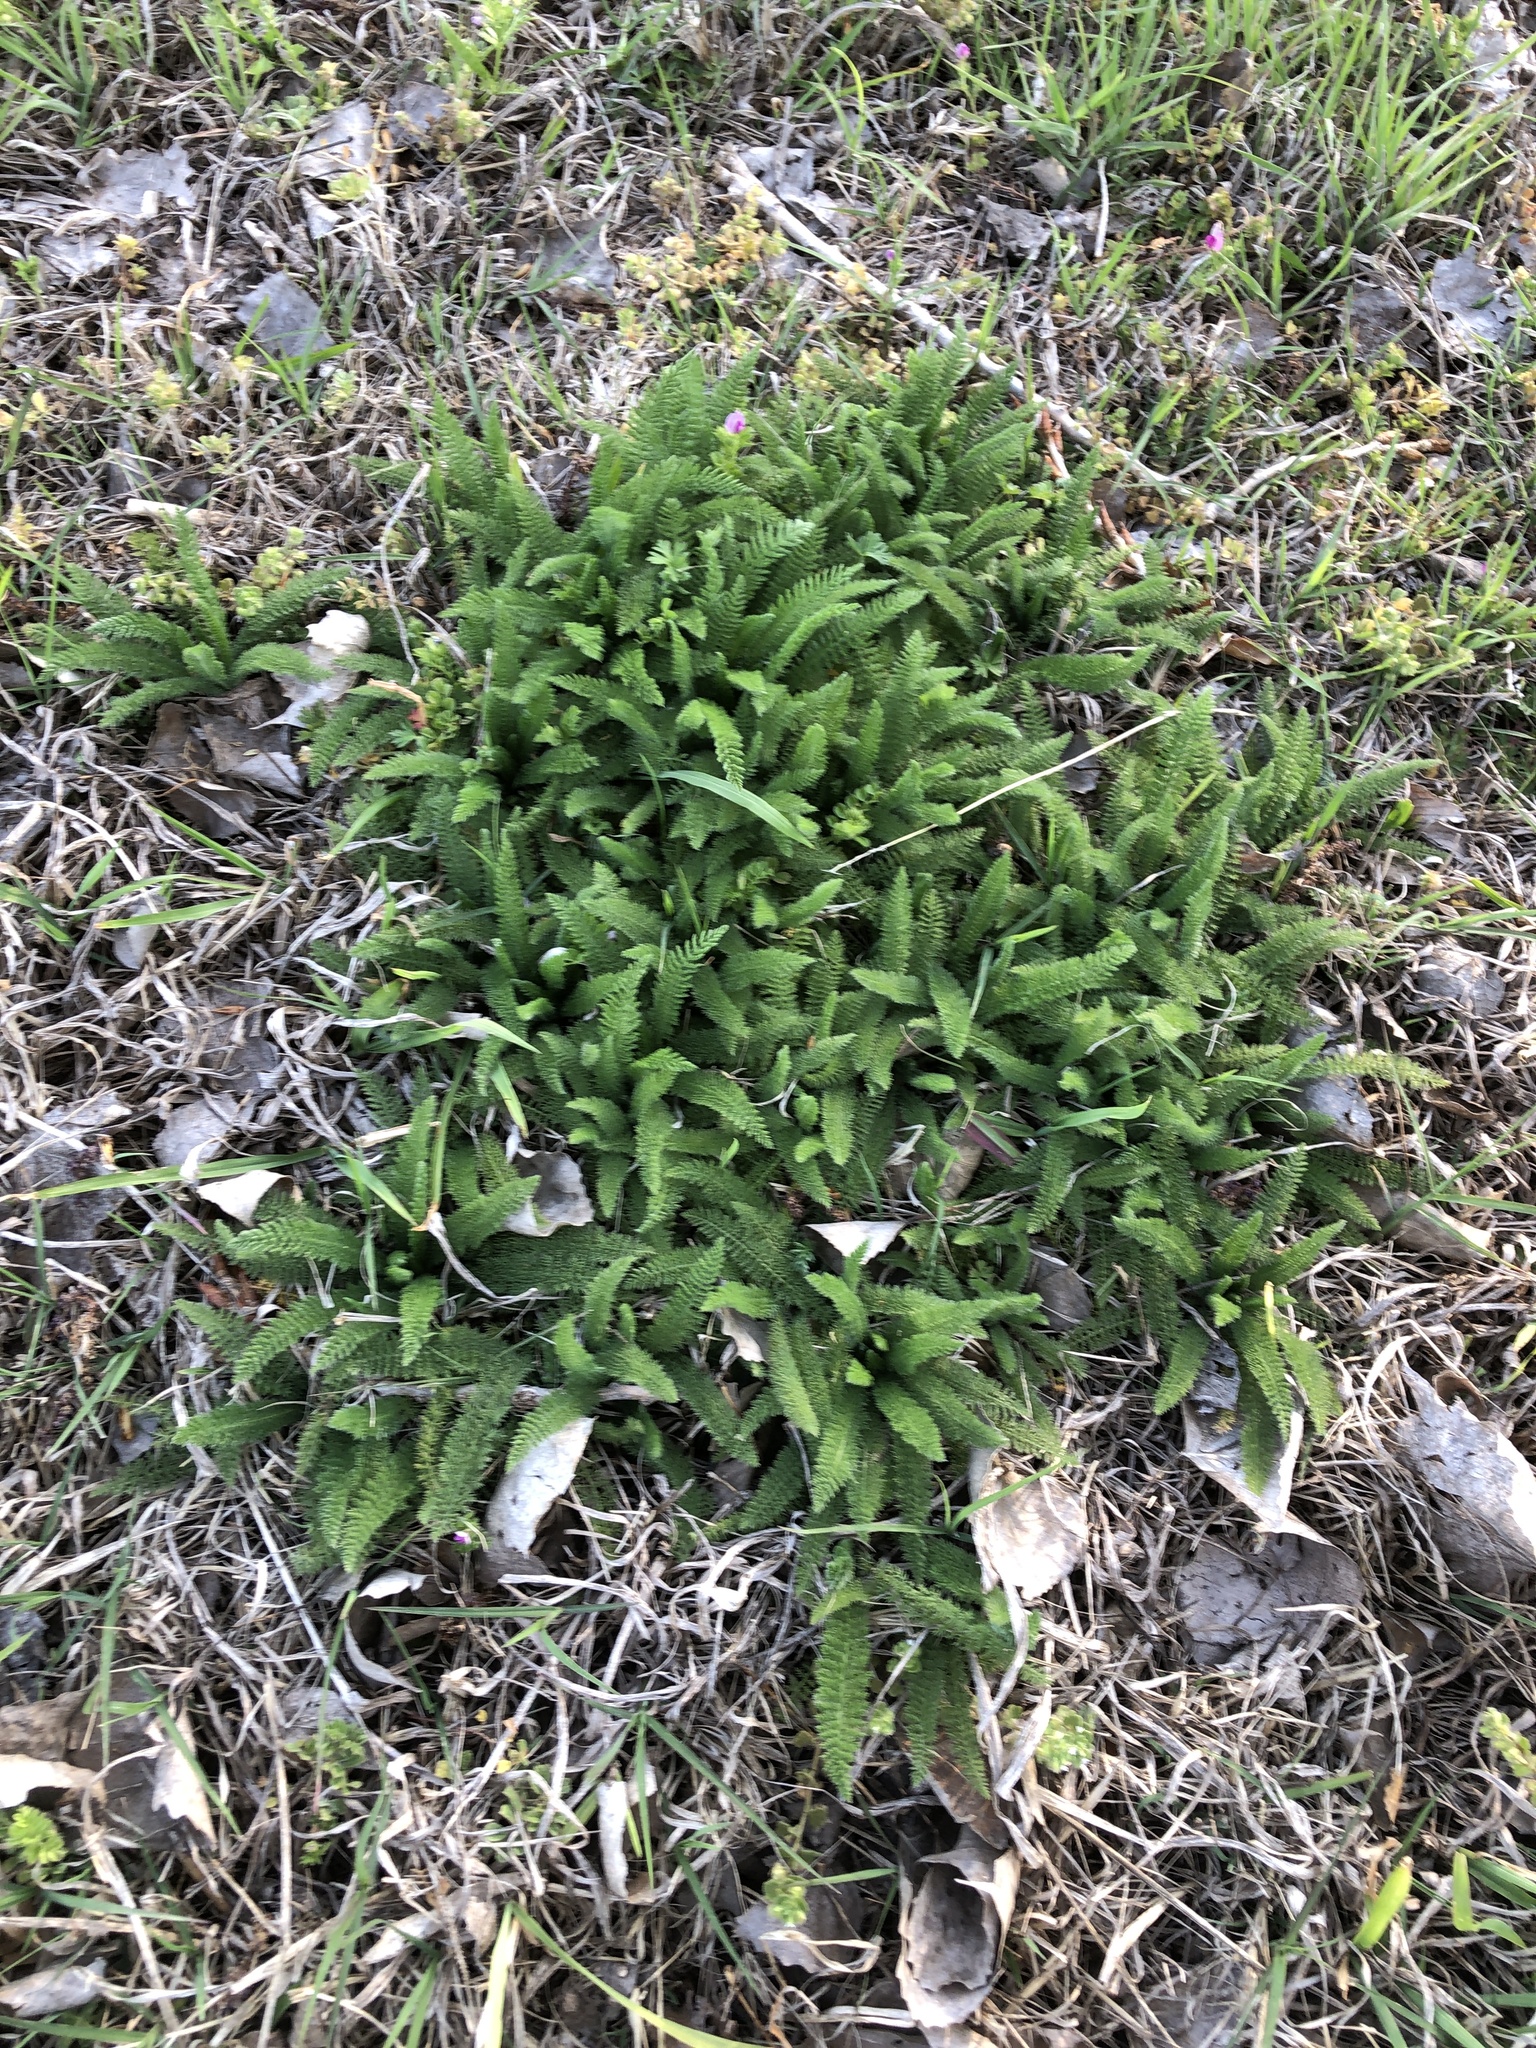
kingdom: Plantae
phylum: Tracheophyta
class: Magnoliopsida
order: Asterales
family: Asteraceae
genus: Achillea
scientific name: Achillea millefolium
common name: Yarrow
